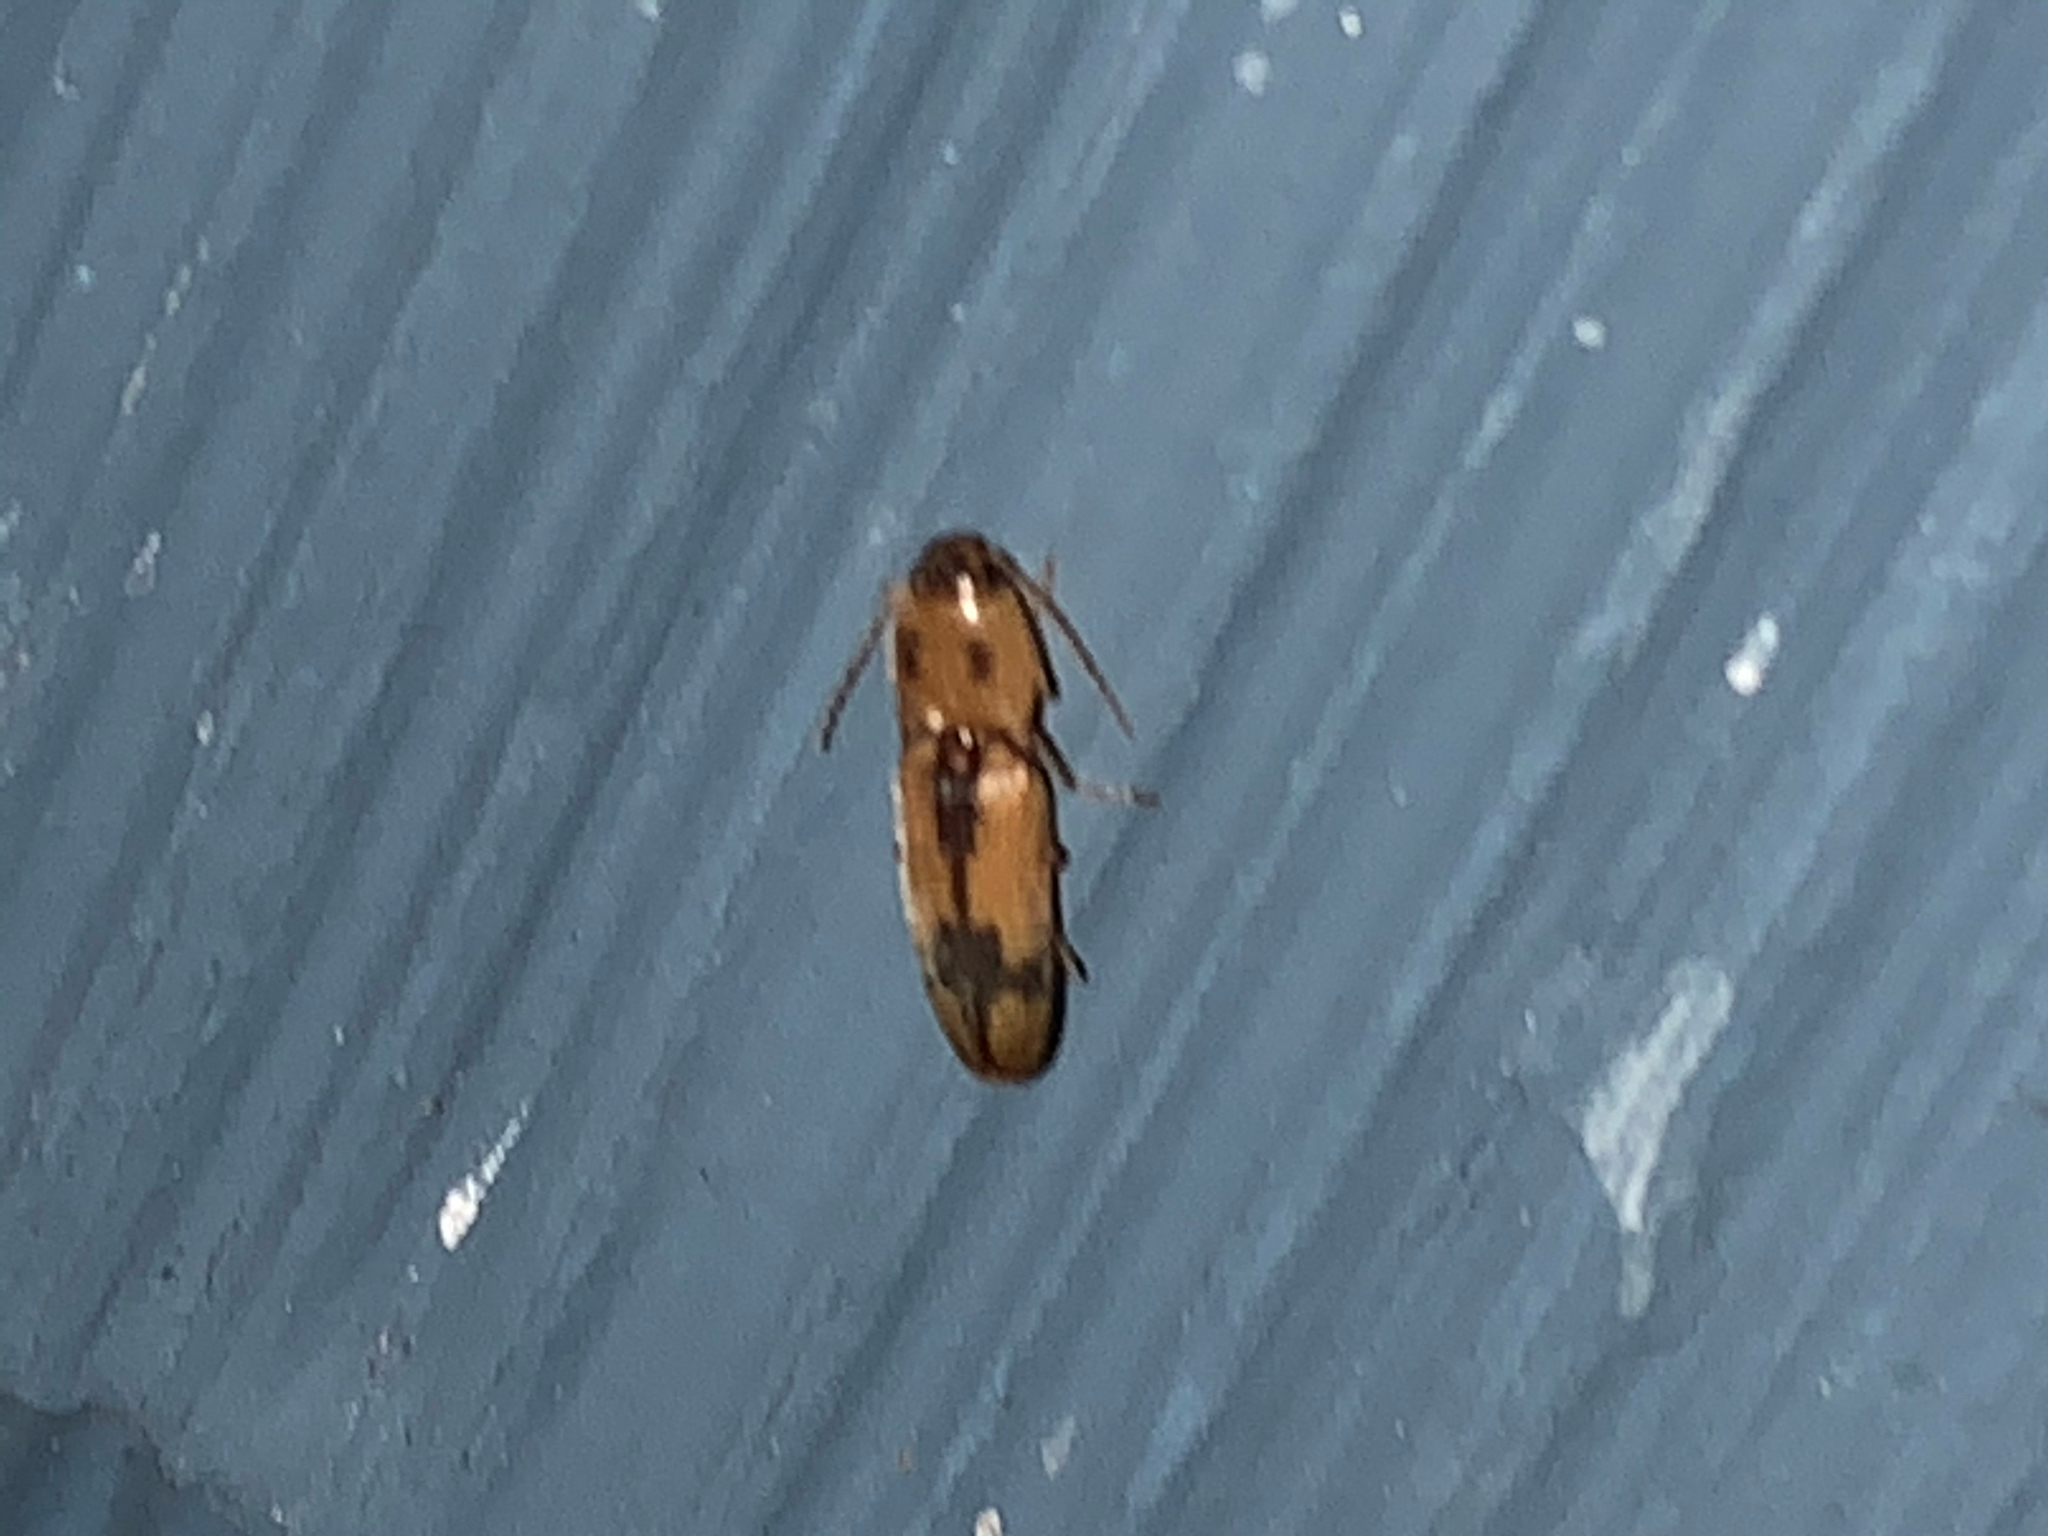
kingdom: Animalia
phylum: Arthropoda
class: Insecta
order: Coleoptera
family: Elateridae
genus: Monocrepidius
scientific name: Monocrepidius
